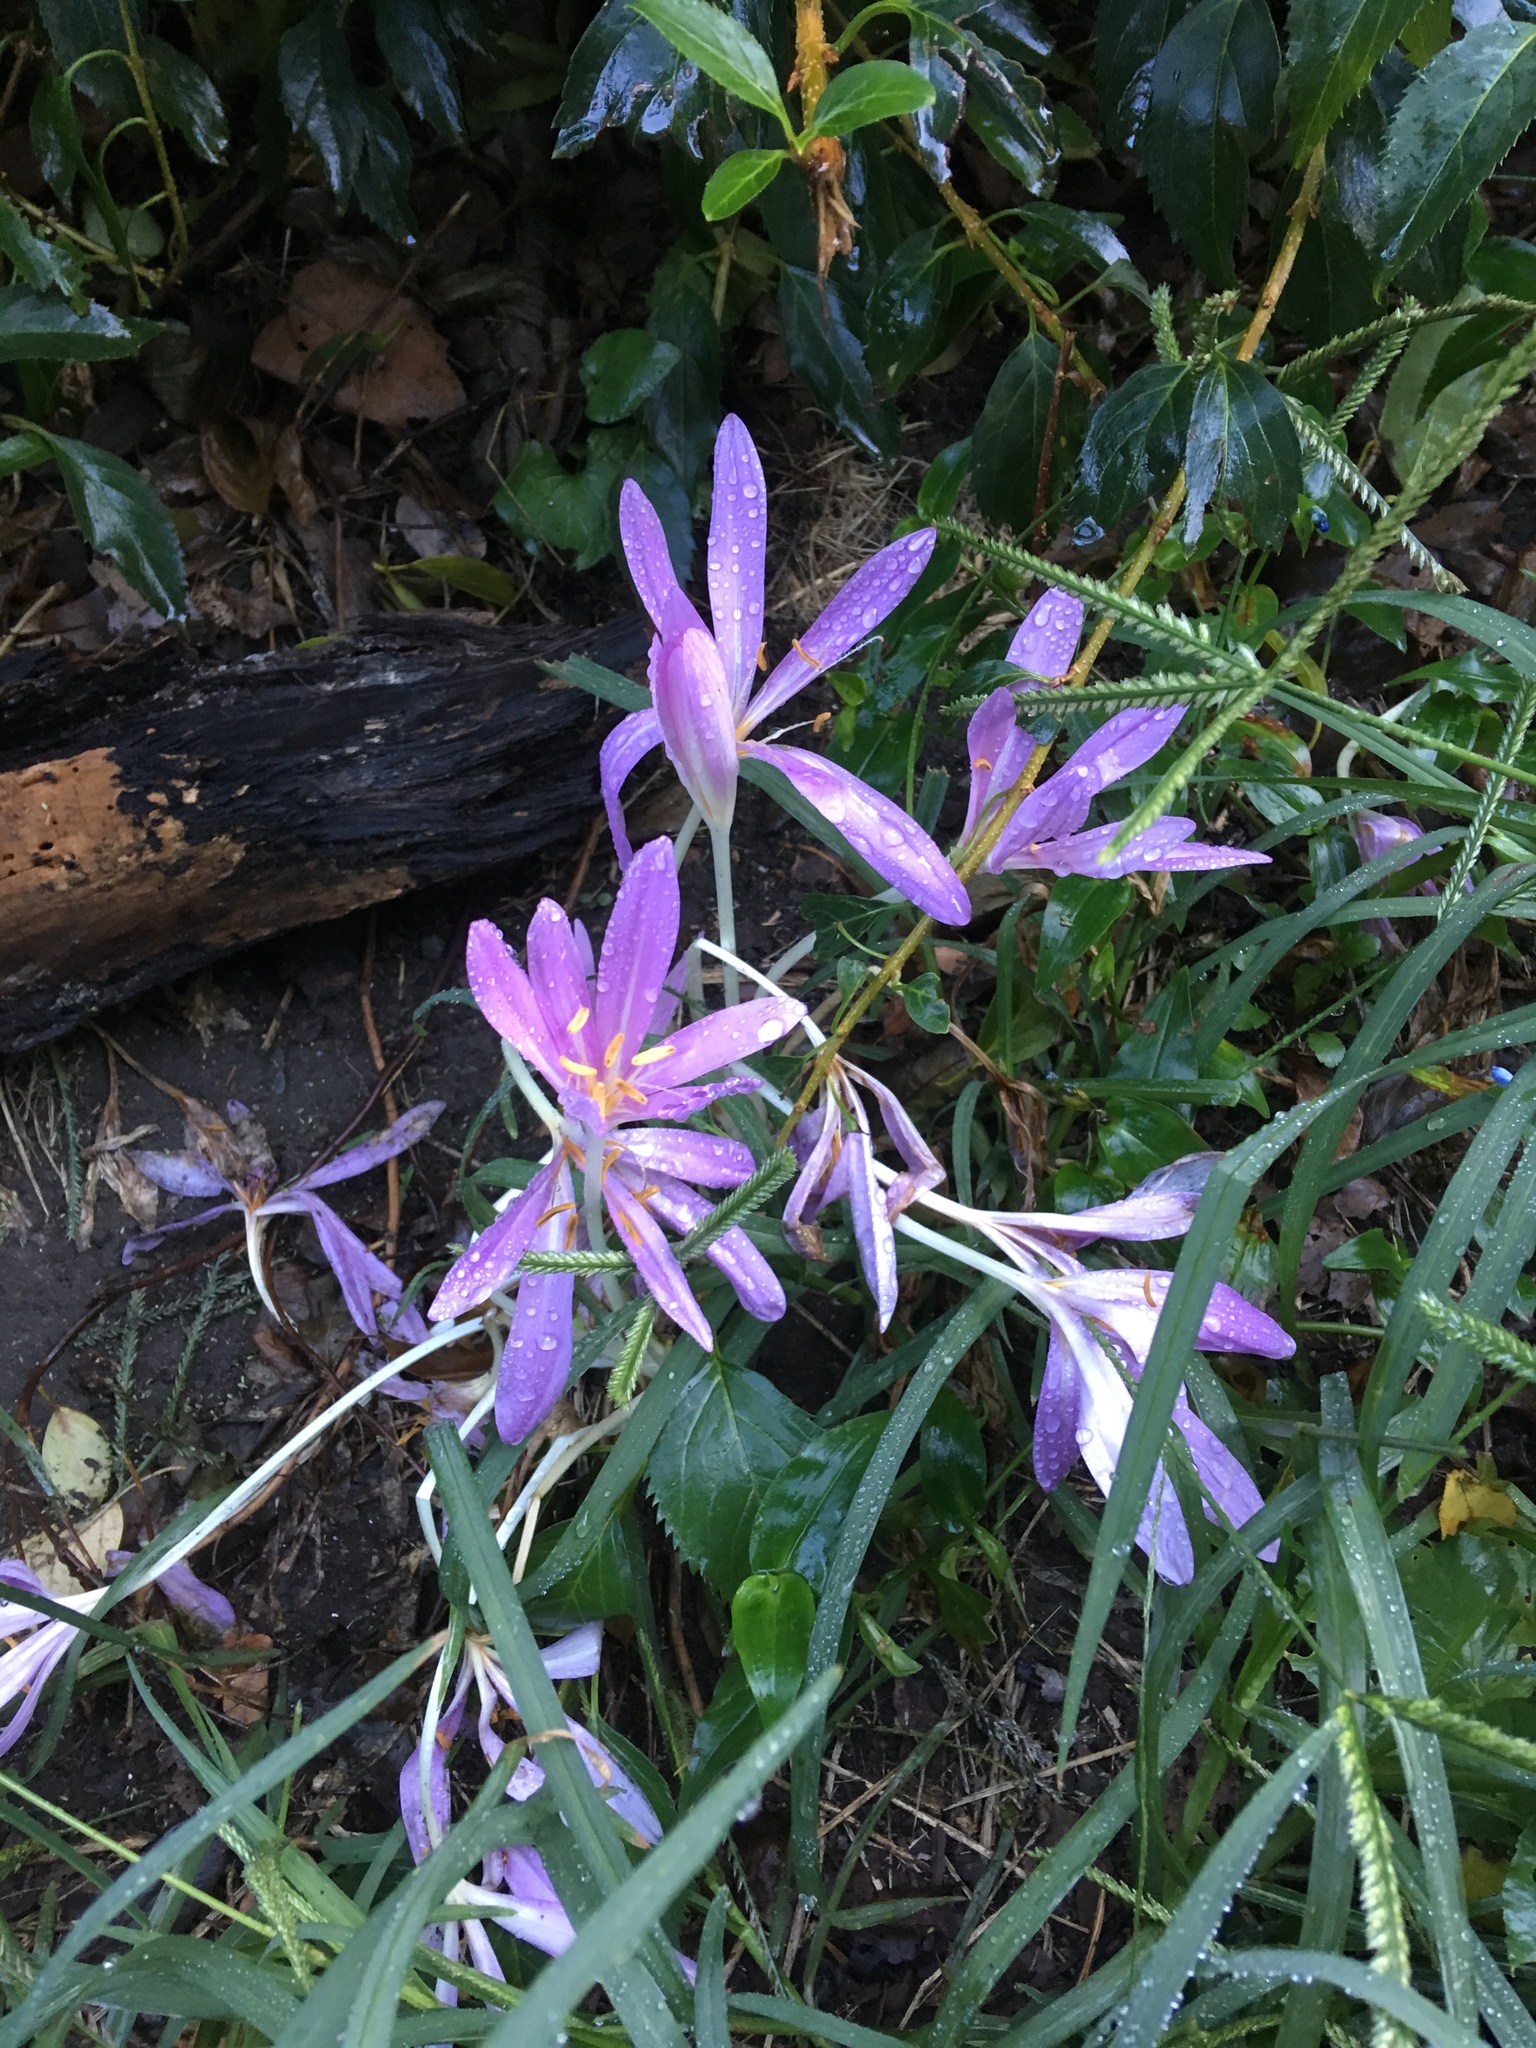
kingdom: Plantae
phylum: Tracheophyta
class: Liliopsida
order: Liliales
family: Colchicaceae
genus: Colchicum
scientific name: Colchicum autumnale
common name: Autumn crocus
